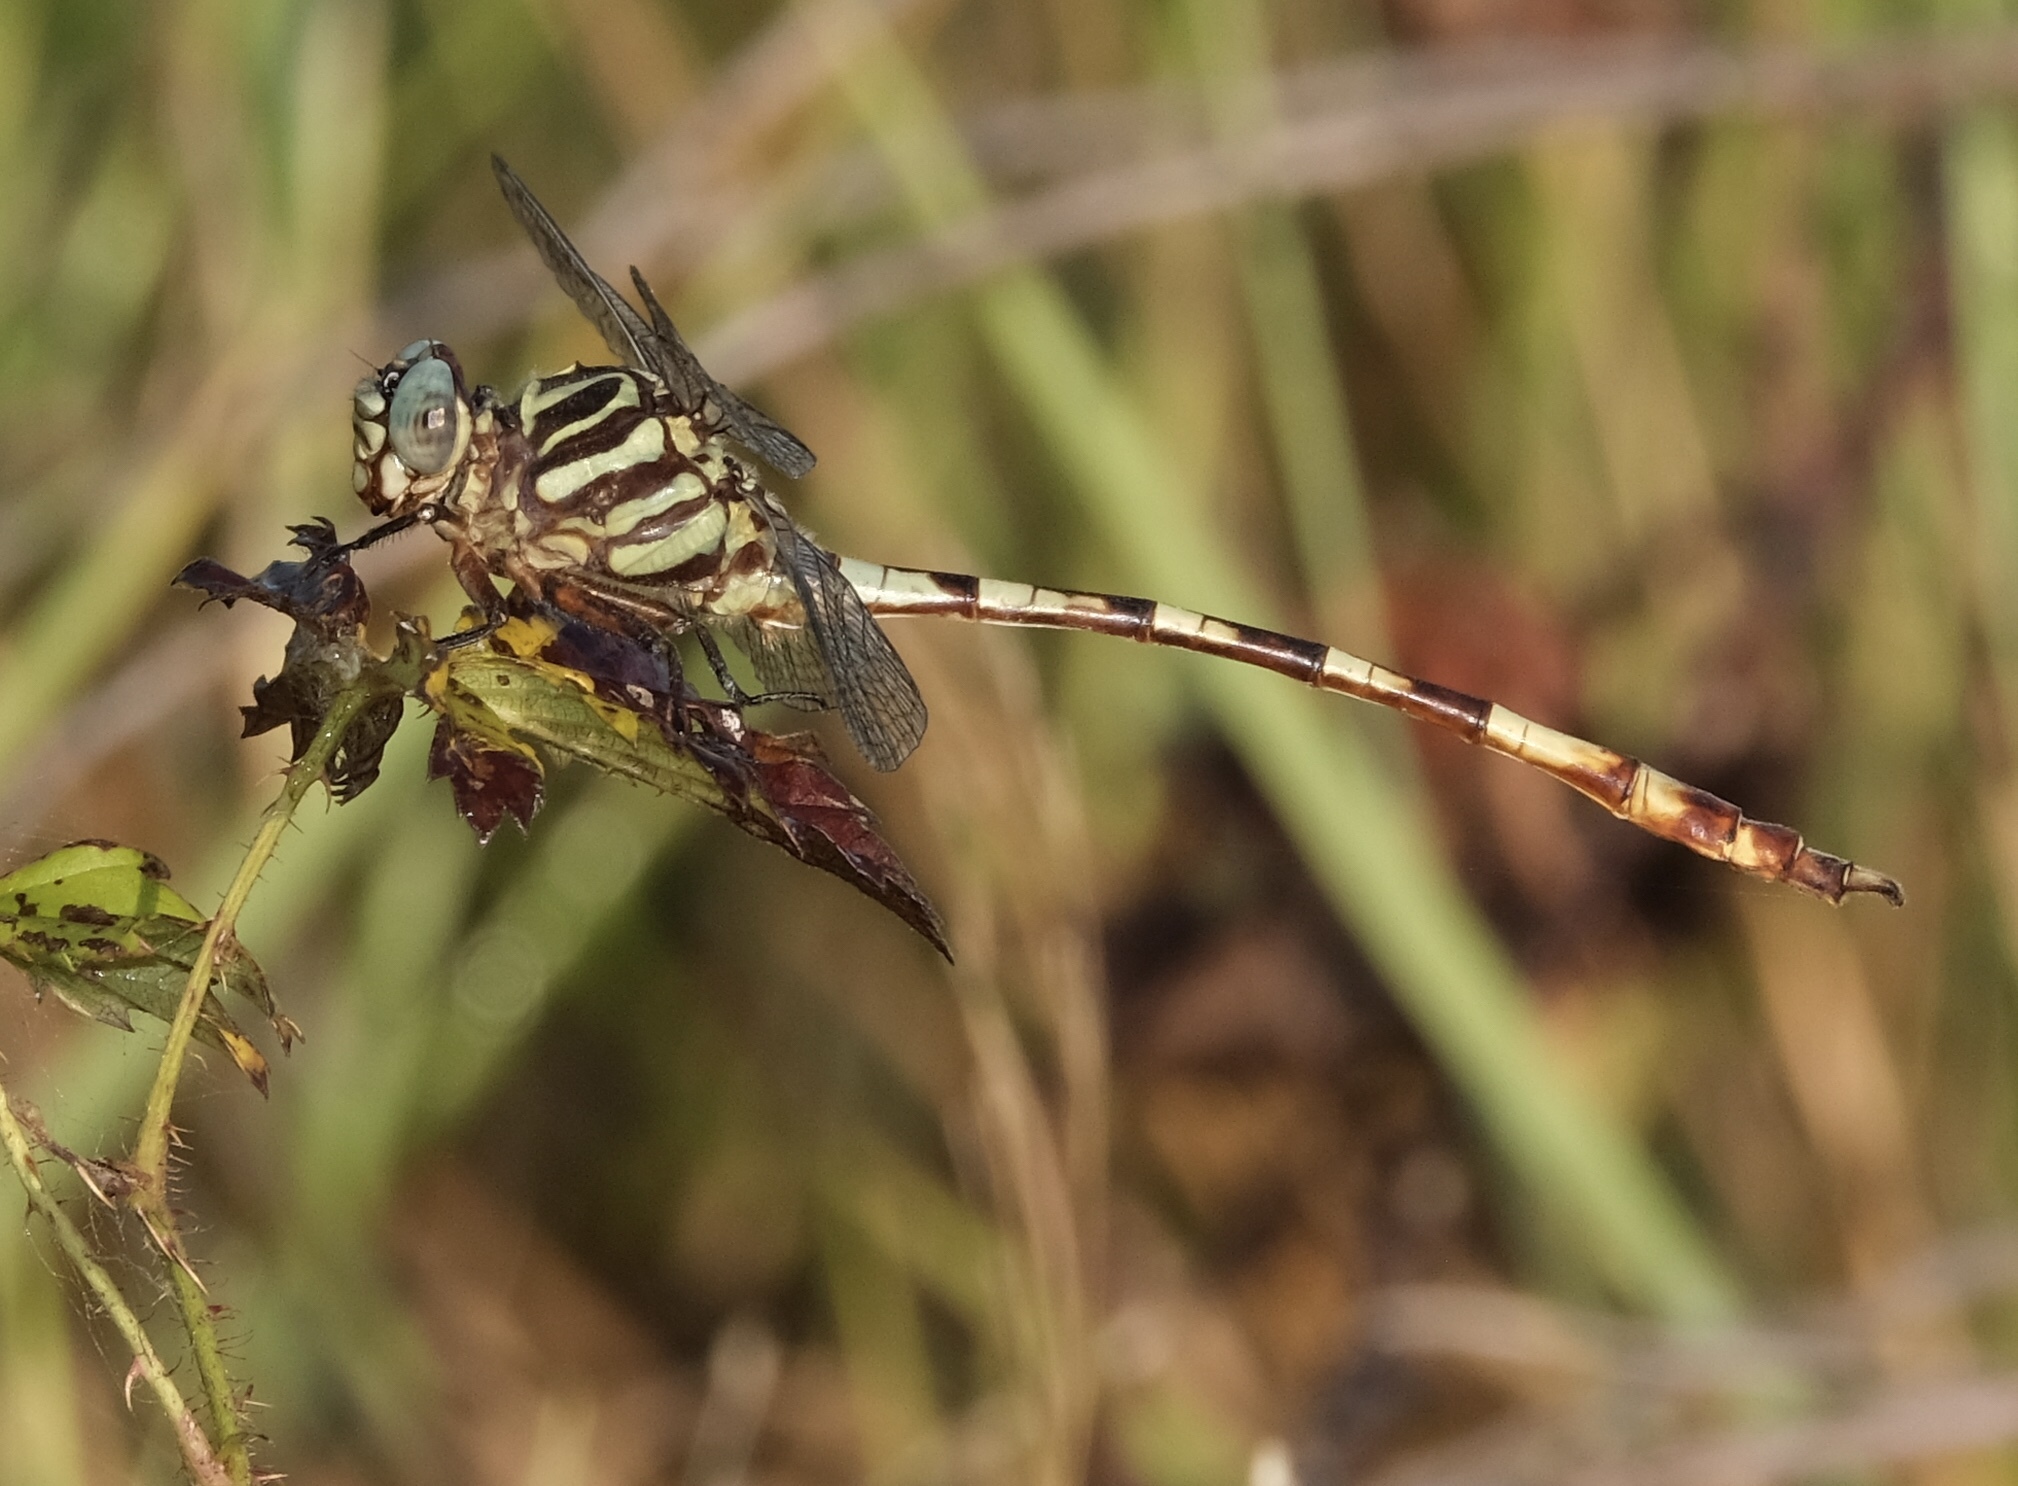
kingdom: Animalia
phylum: Arthropoda
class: Insecta
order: Odonata
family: Gomphidae
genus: Aphylla
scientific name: Aphylla angustifolia
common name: Broad-striped forceptail
